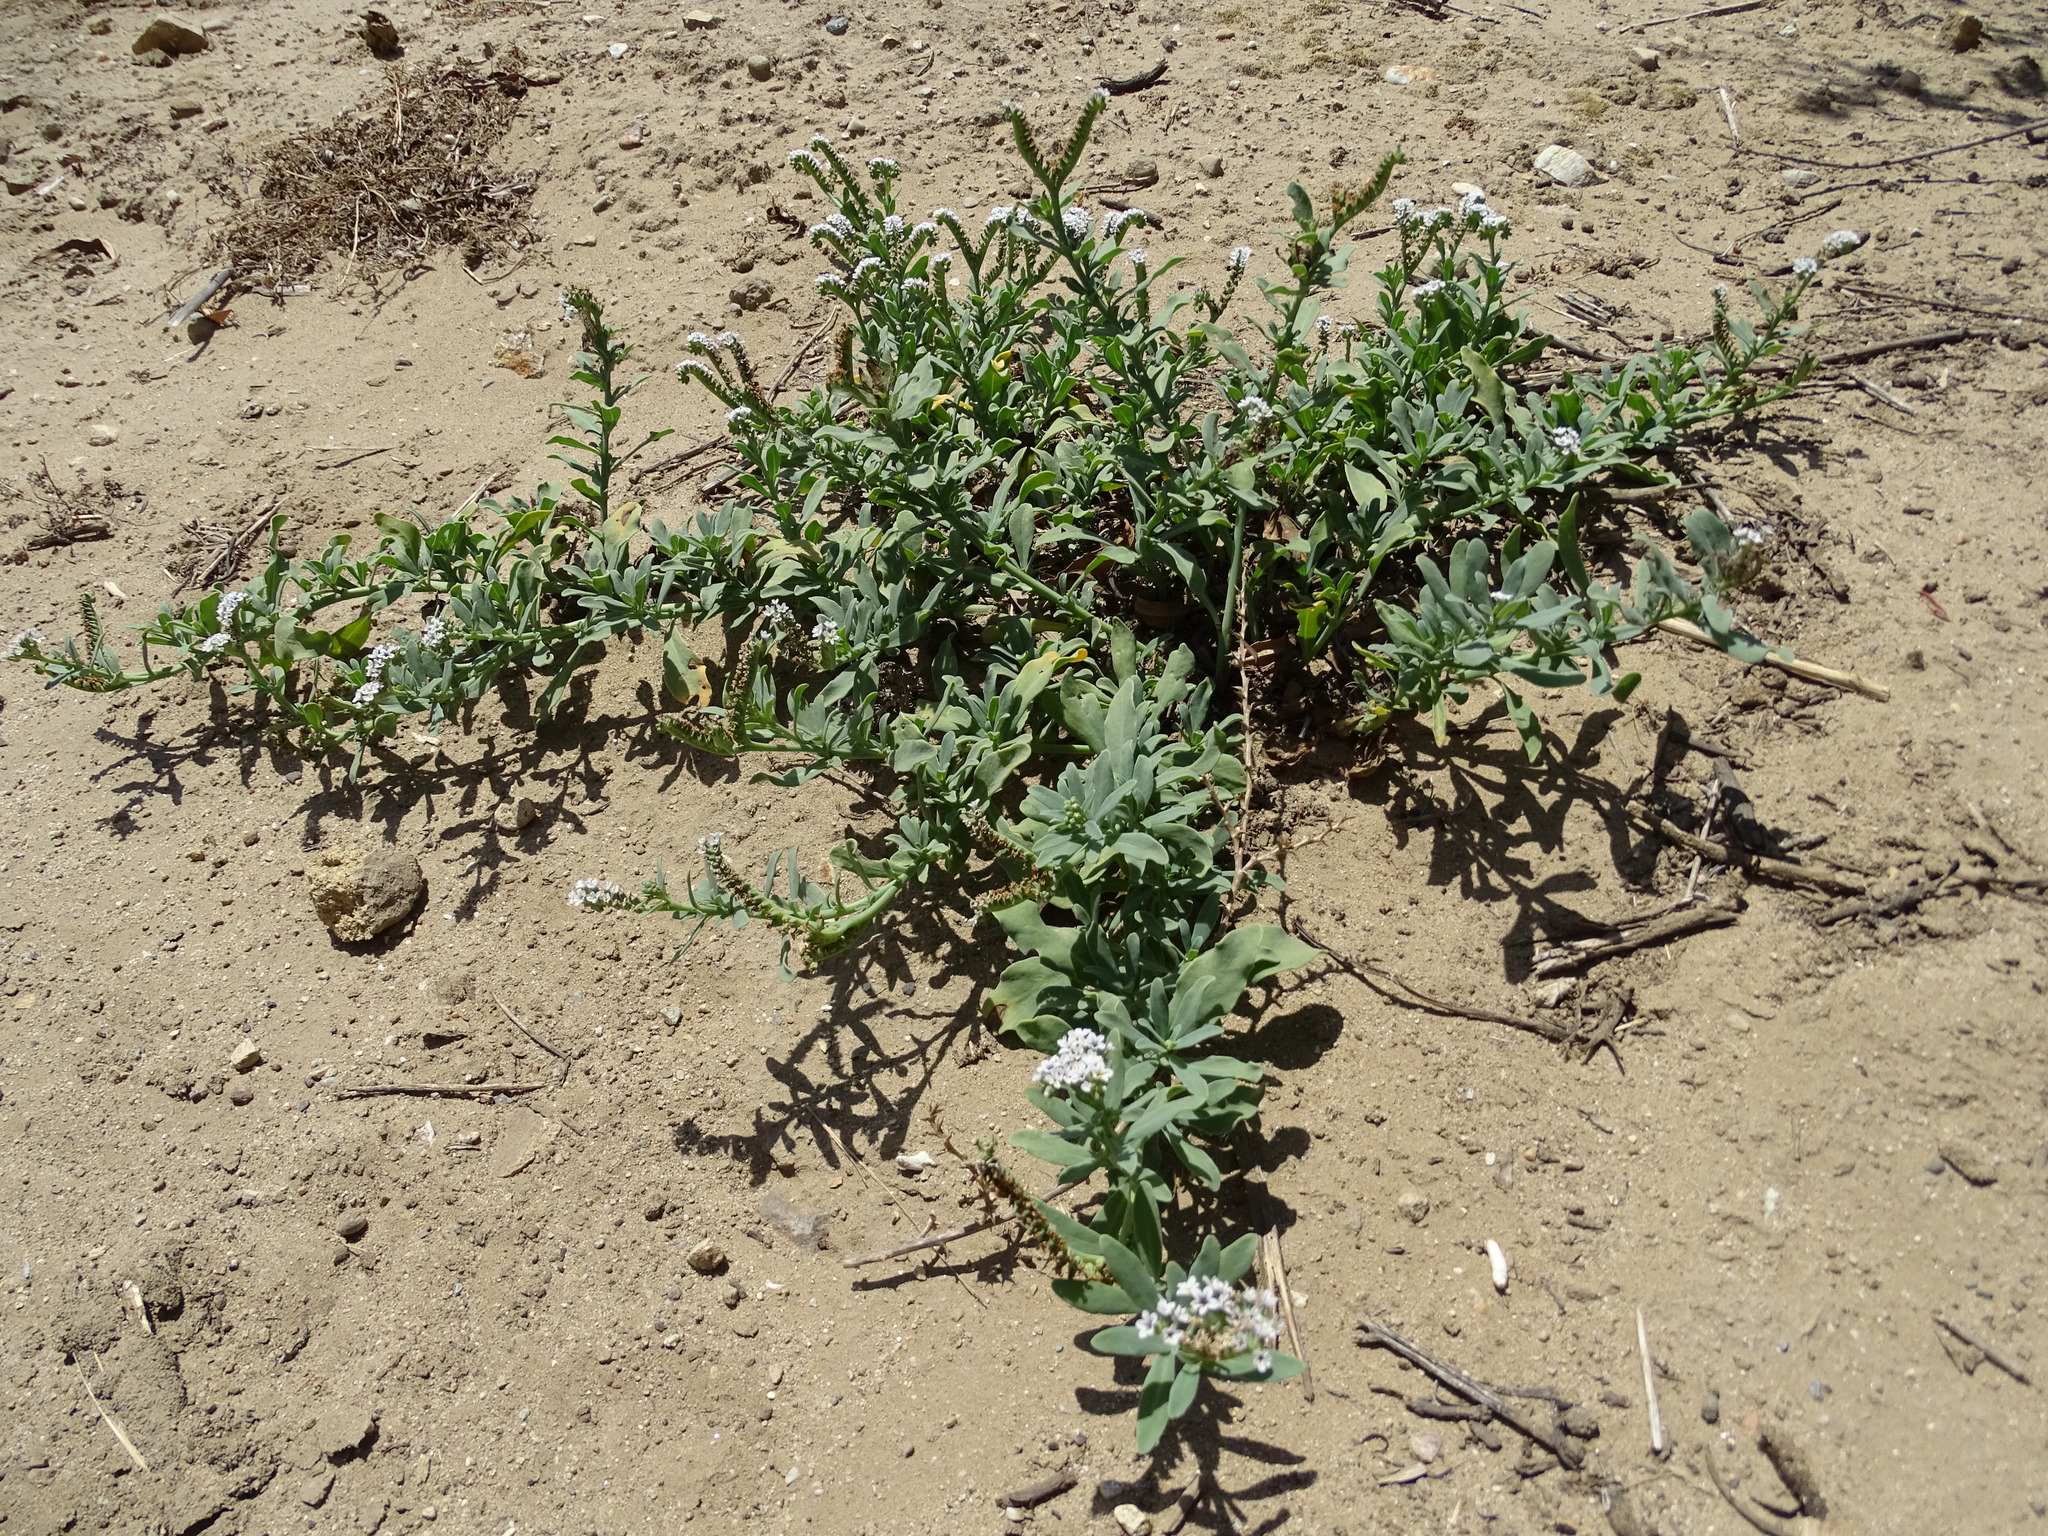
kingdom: Plantae
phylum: Tracheophyta
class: Magnoliopsida
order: Boraginales
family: Heliotropiaceae
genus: Heliotropium
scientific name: Heliotropium curassavicum
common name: Seaside heliotrope
